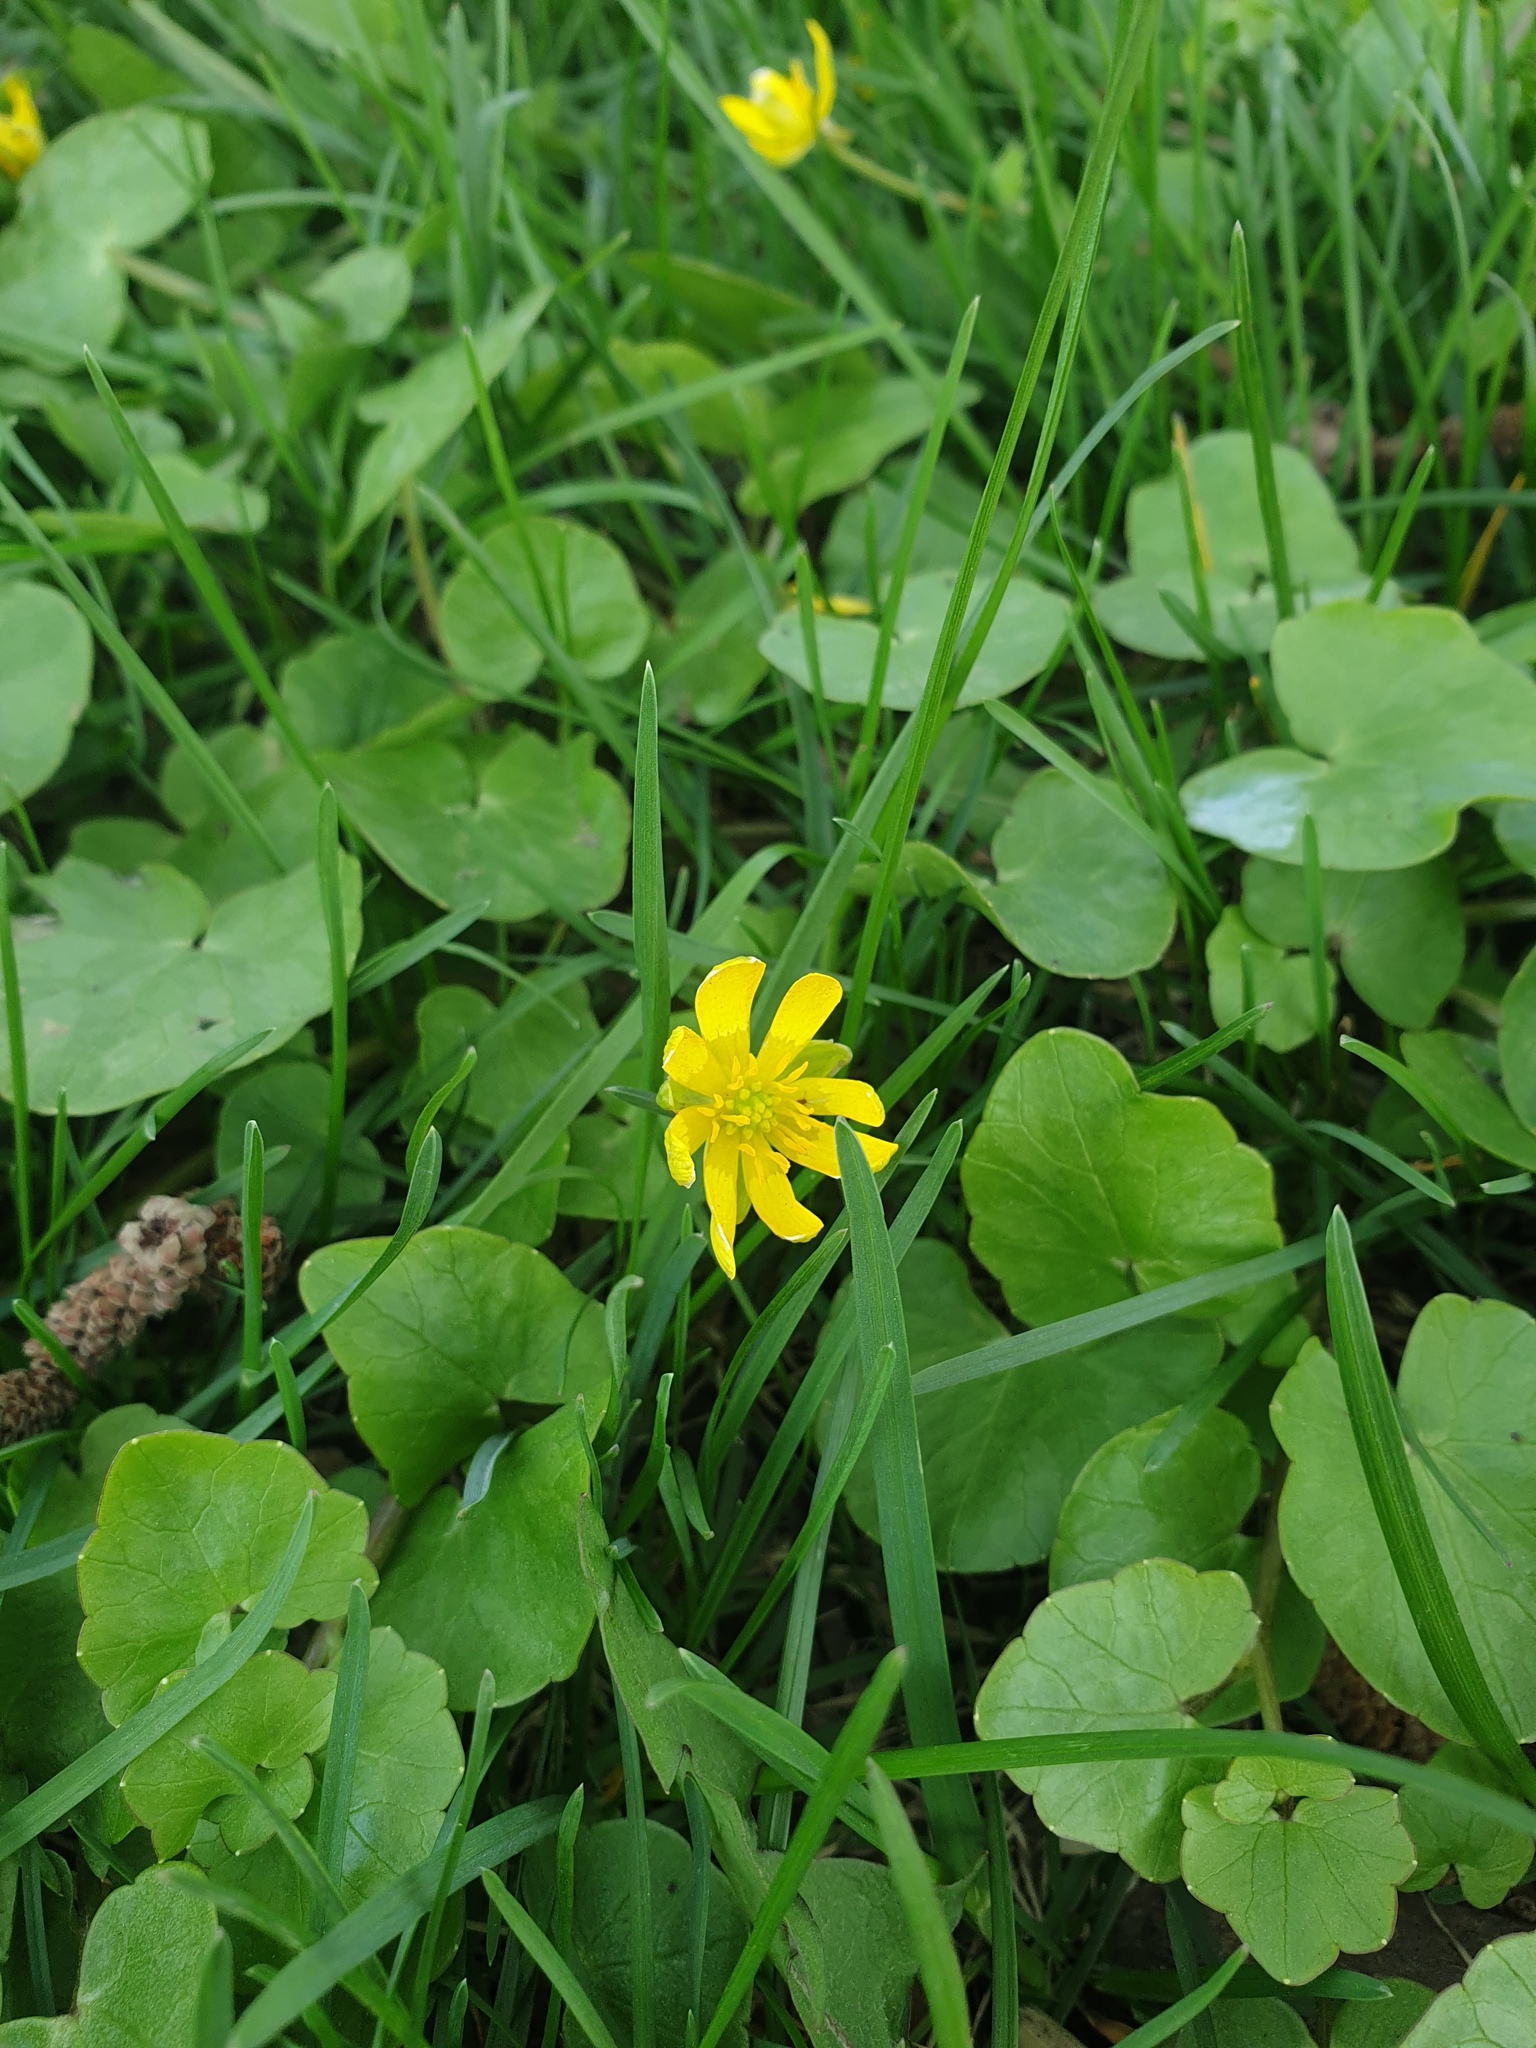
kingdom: Plantae
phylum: Tracheophyta
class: Magnoliopsida
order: Ranunculales
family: Ranunculaceae
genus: Ficaria
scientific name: Ficaria verna
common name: Lesser celandine
